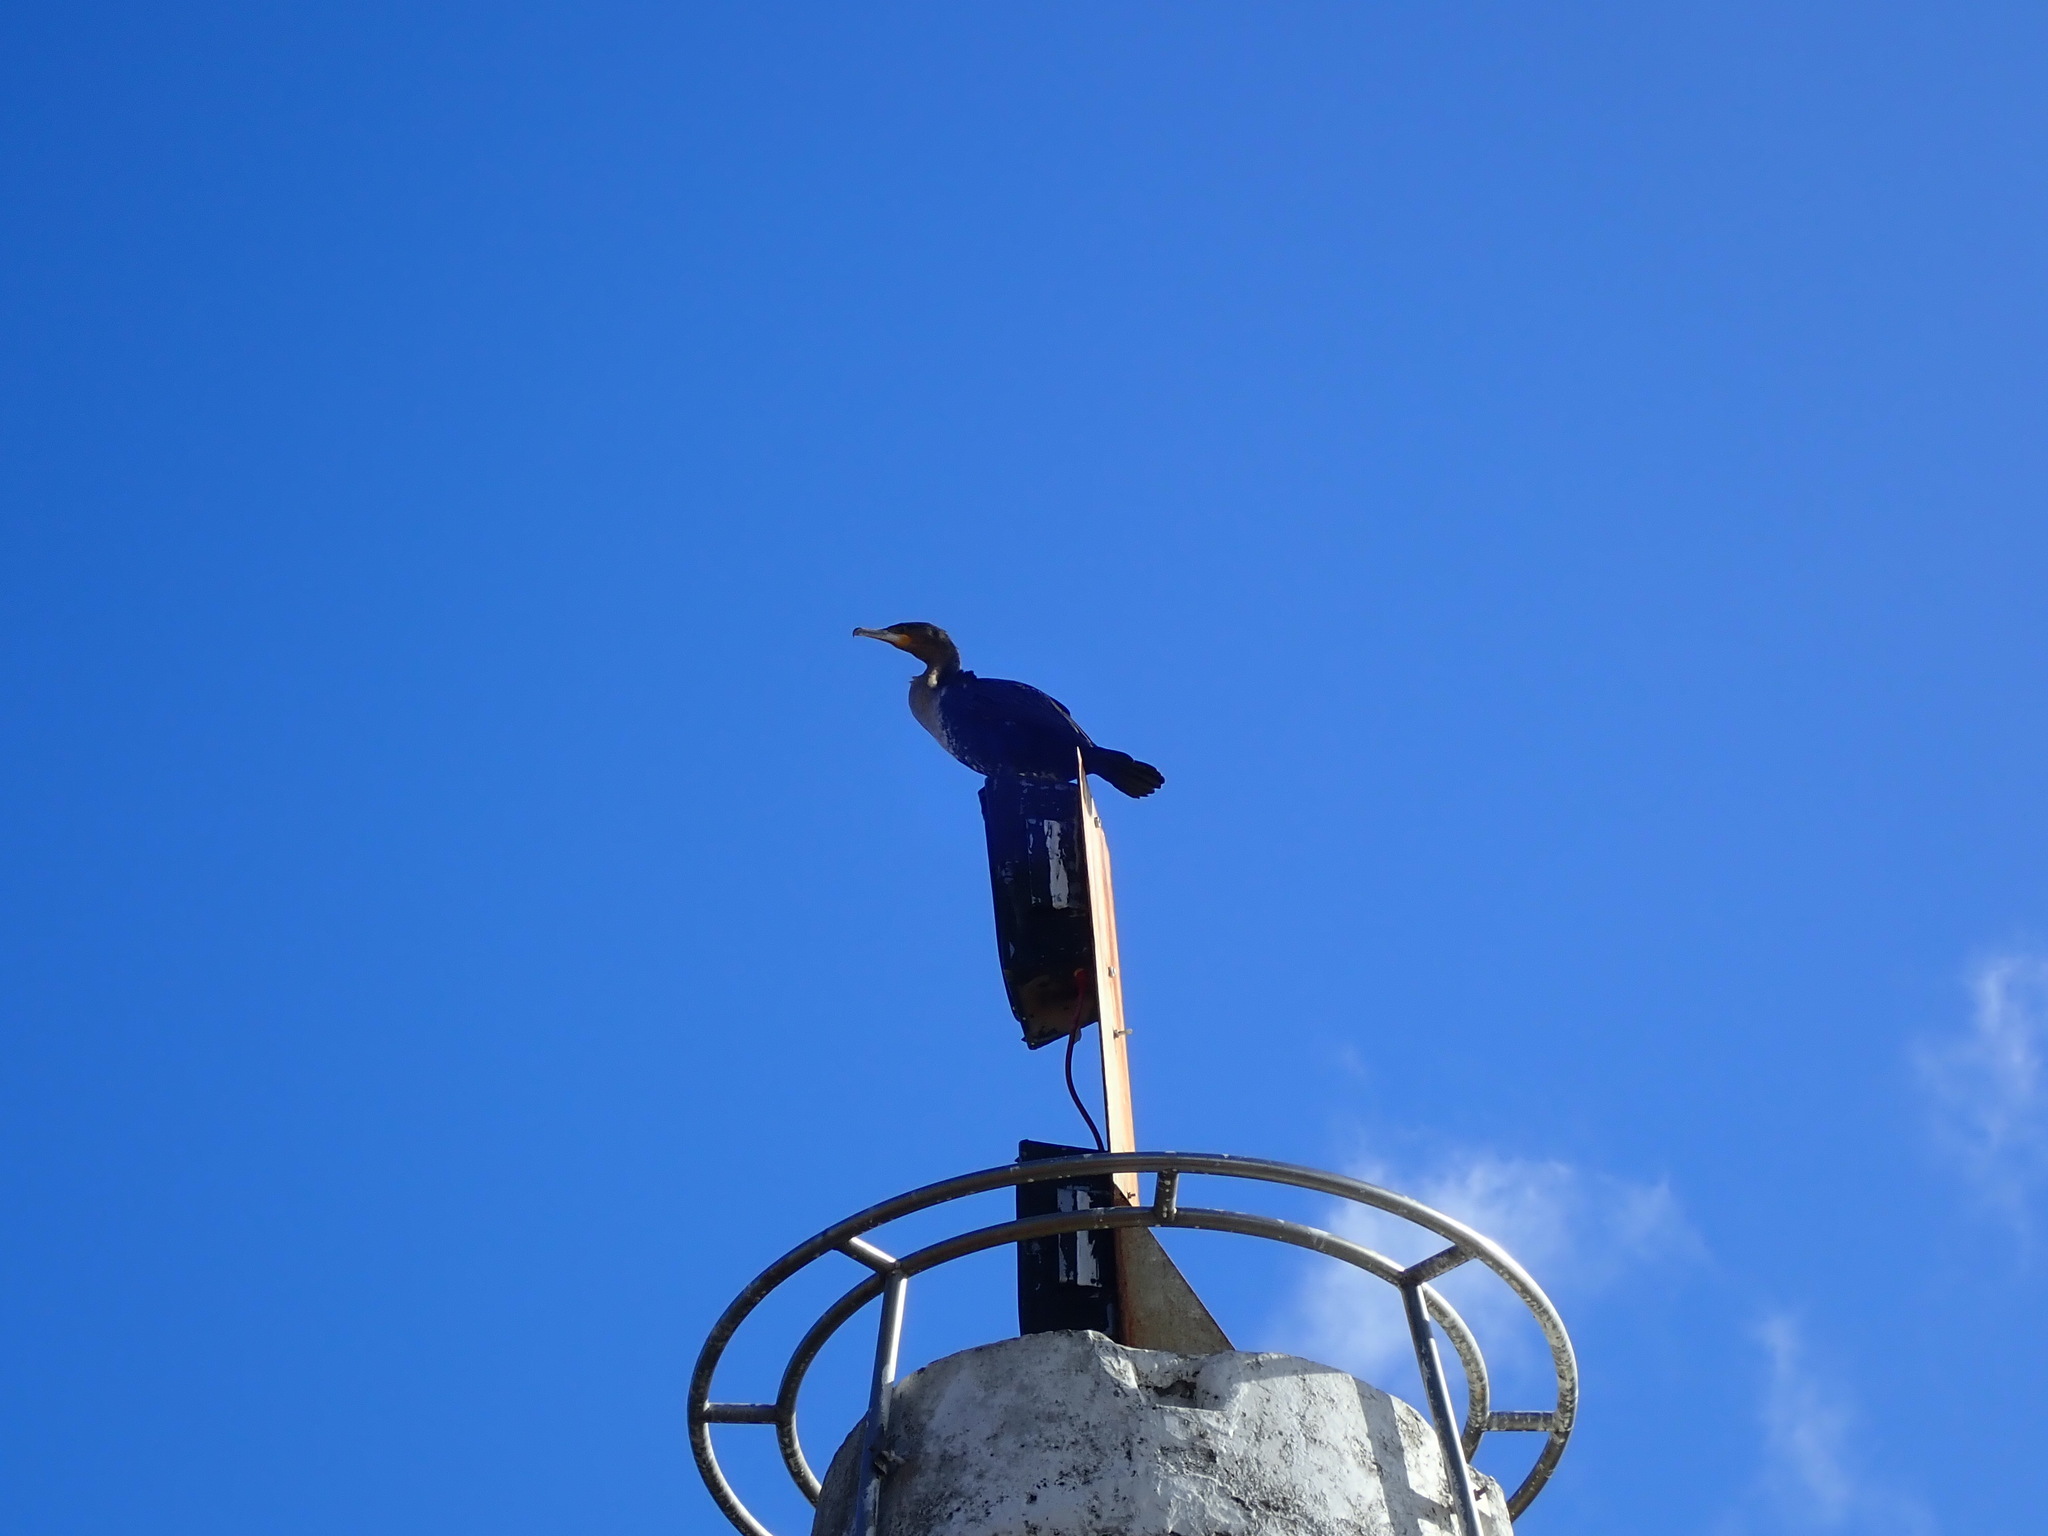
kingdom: Animalia
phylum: Chordata
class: Aves
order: Suliformes
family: Phalacrocoracidae
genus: Phalacrocorax
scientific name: Phalacrocorax carbo
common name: Great cormorant
